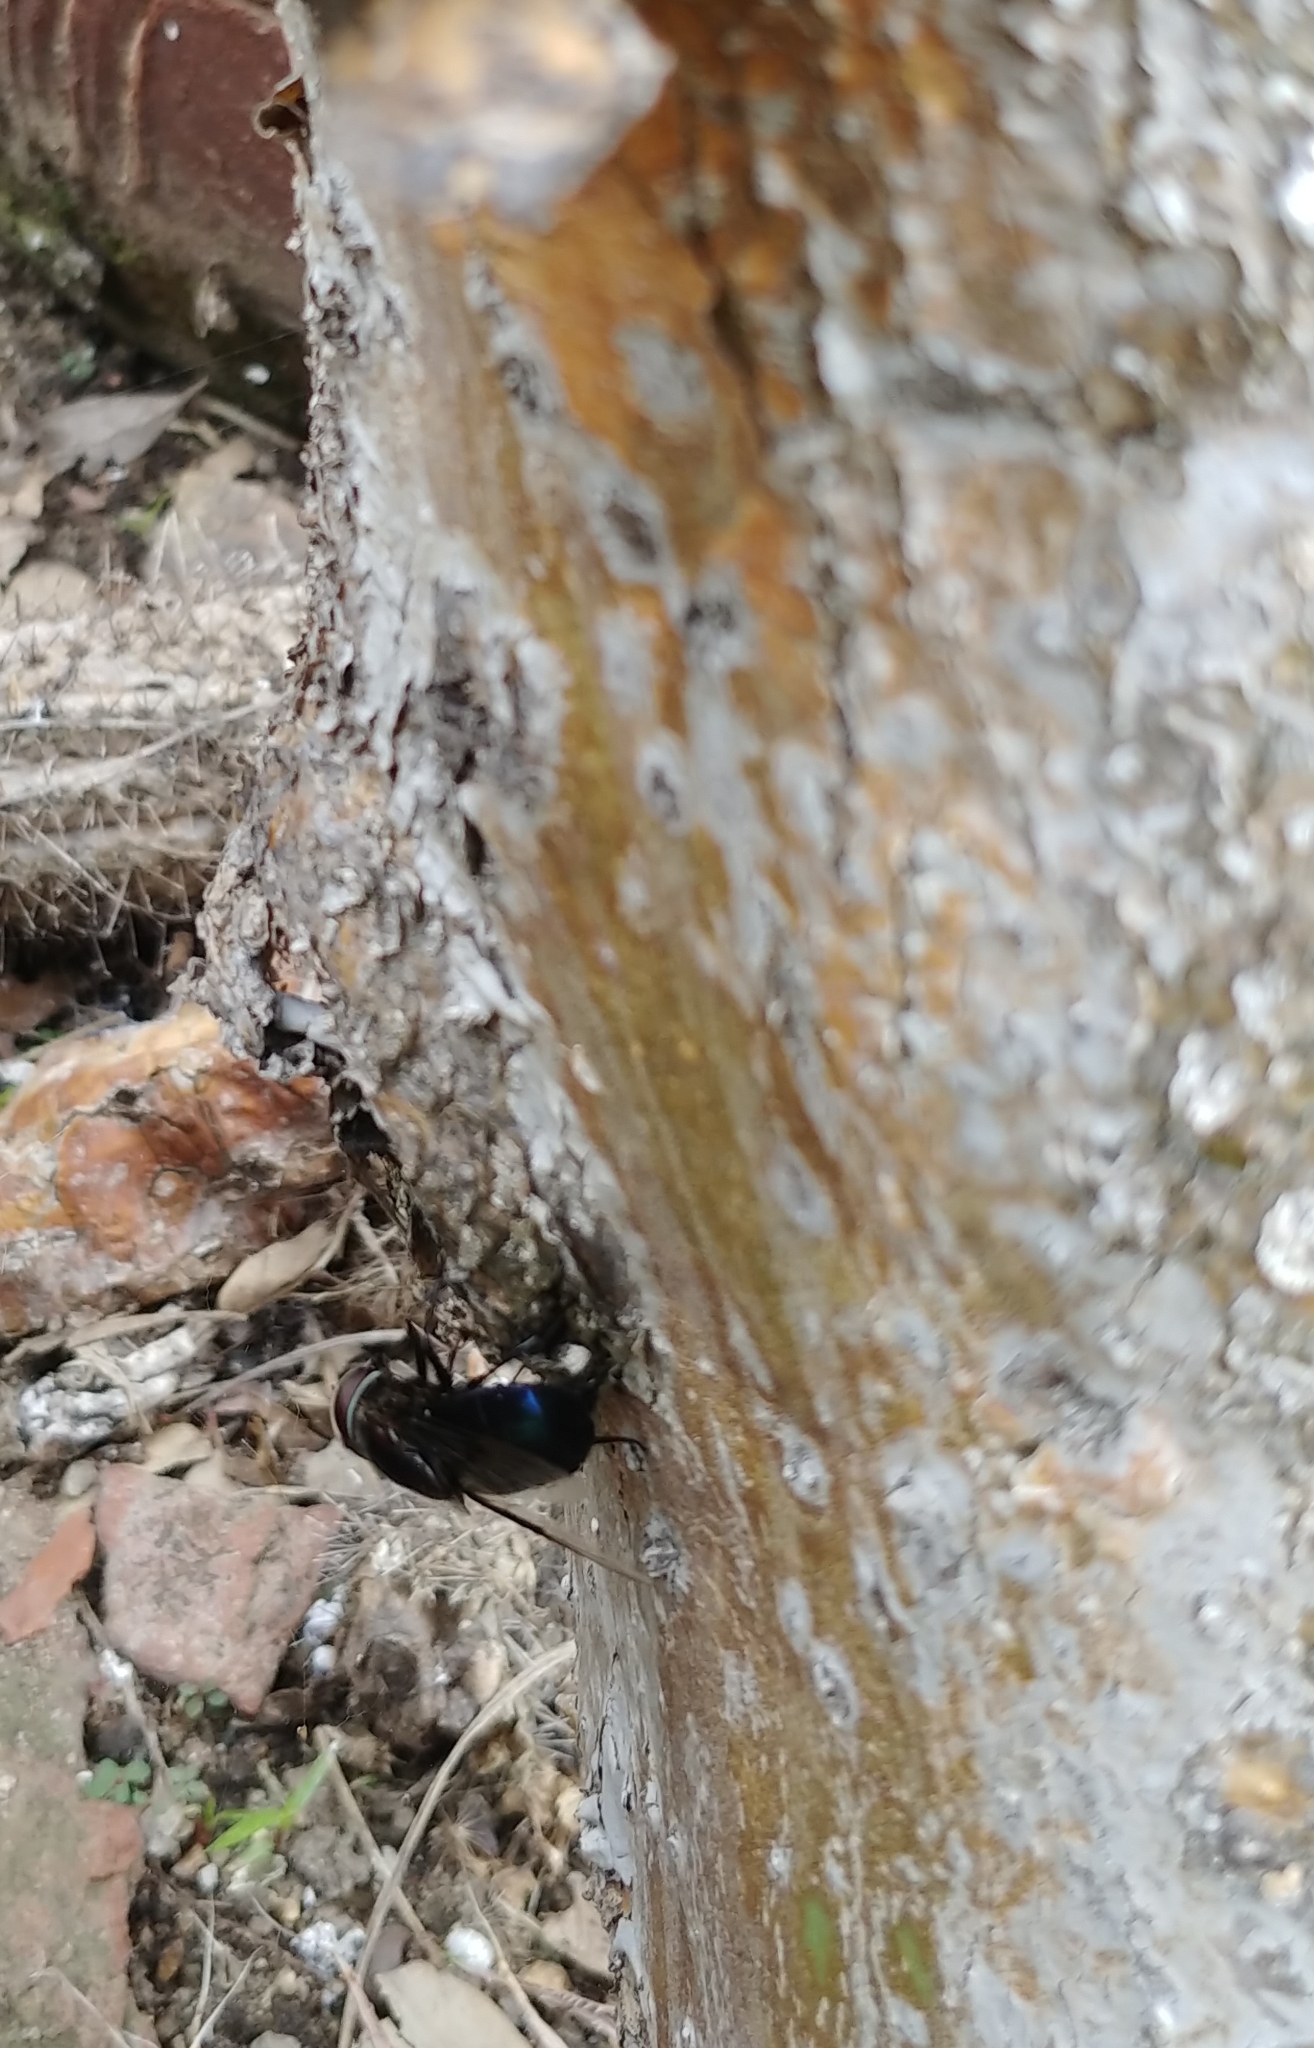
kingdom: Animalia
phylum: Arthropoda
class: Insecta
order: Diptera
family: Syrphidae
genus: Copestylum
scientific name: Copestylum mexicanum
